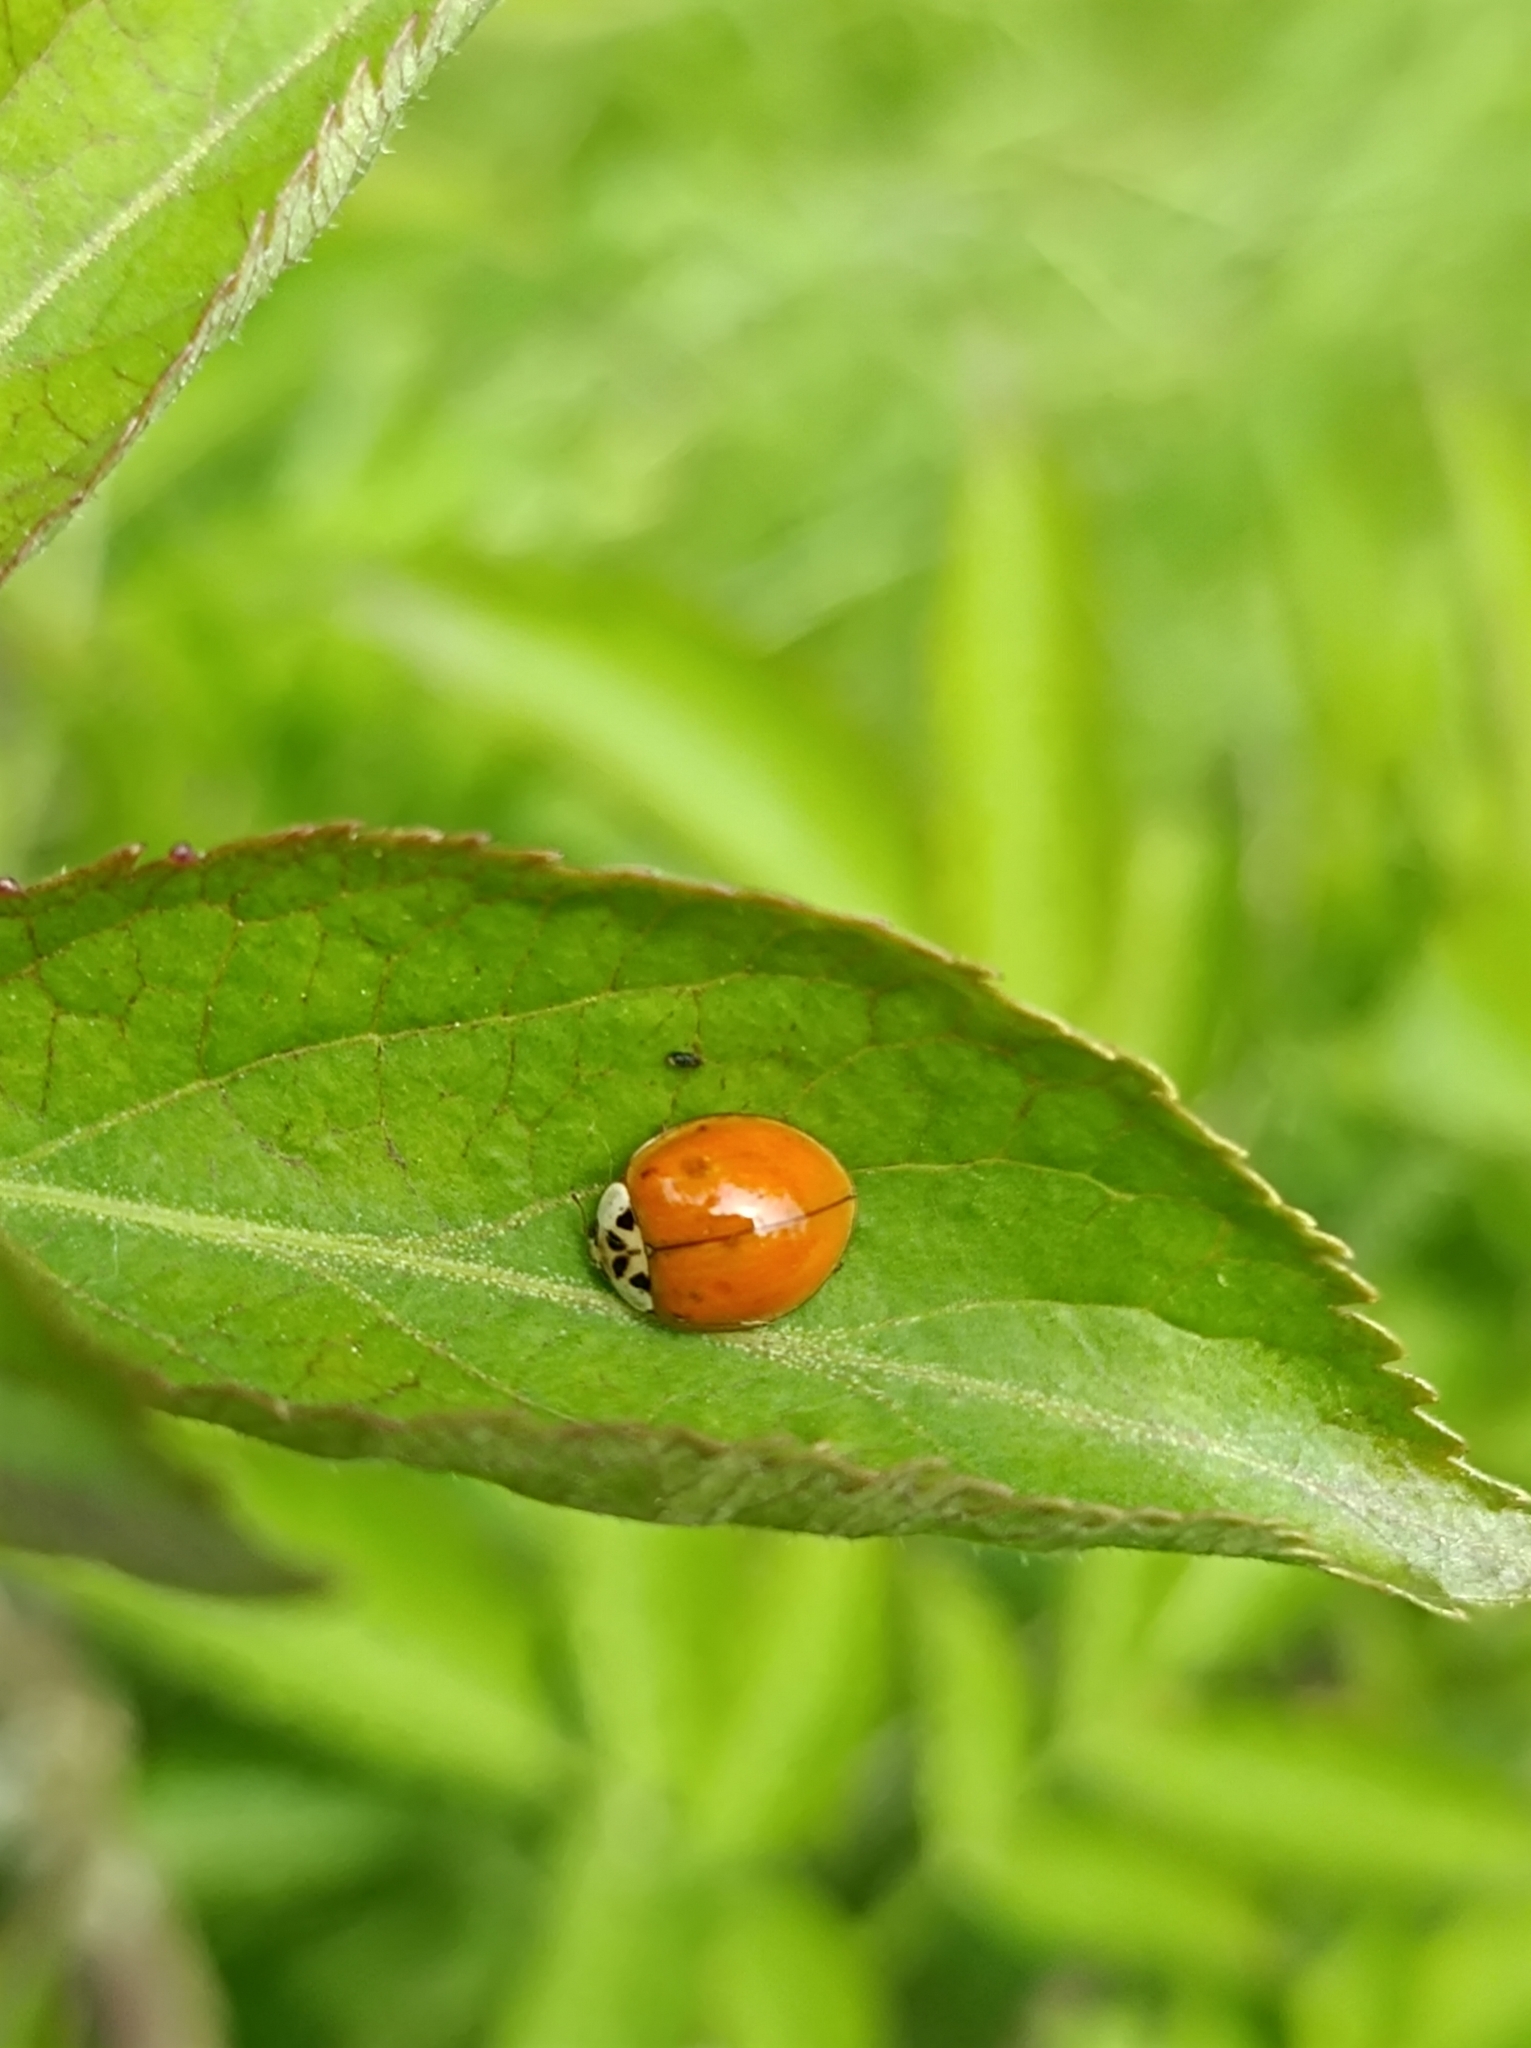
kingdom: Animalia
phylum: Arthropoda
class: Insecta
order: Coleoptera
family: Coccinellidae
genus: Harmonia
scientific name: Harmonia axyridis
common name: Harlequin ladybird
